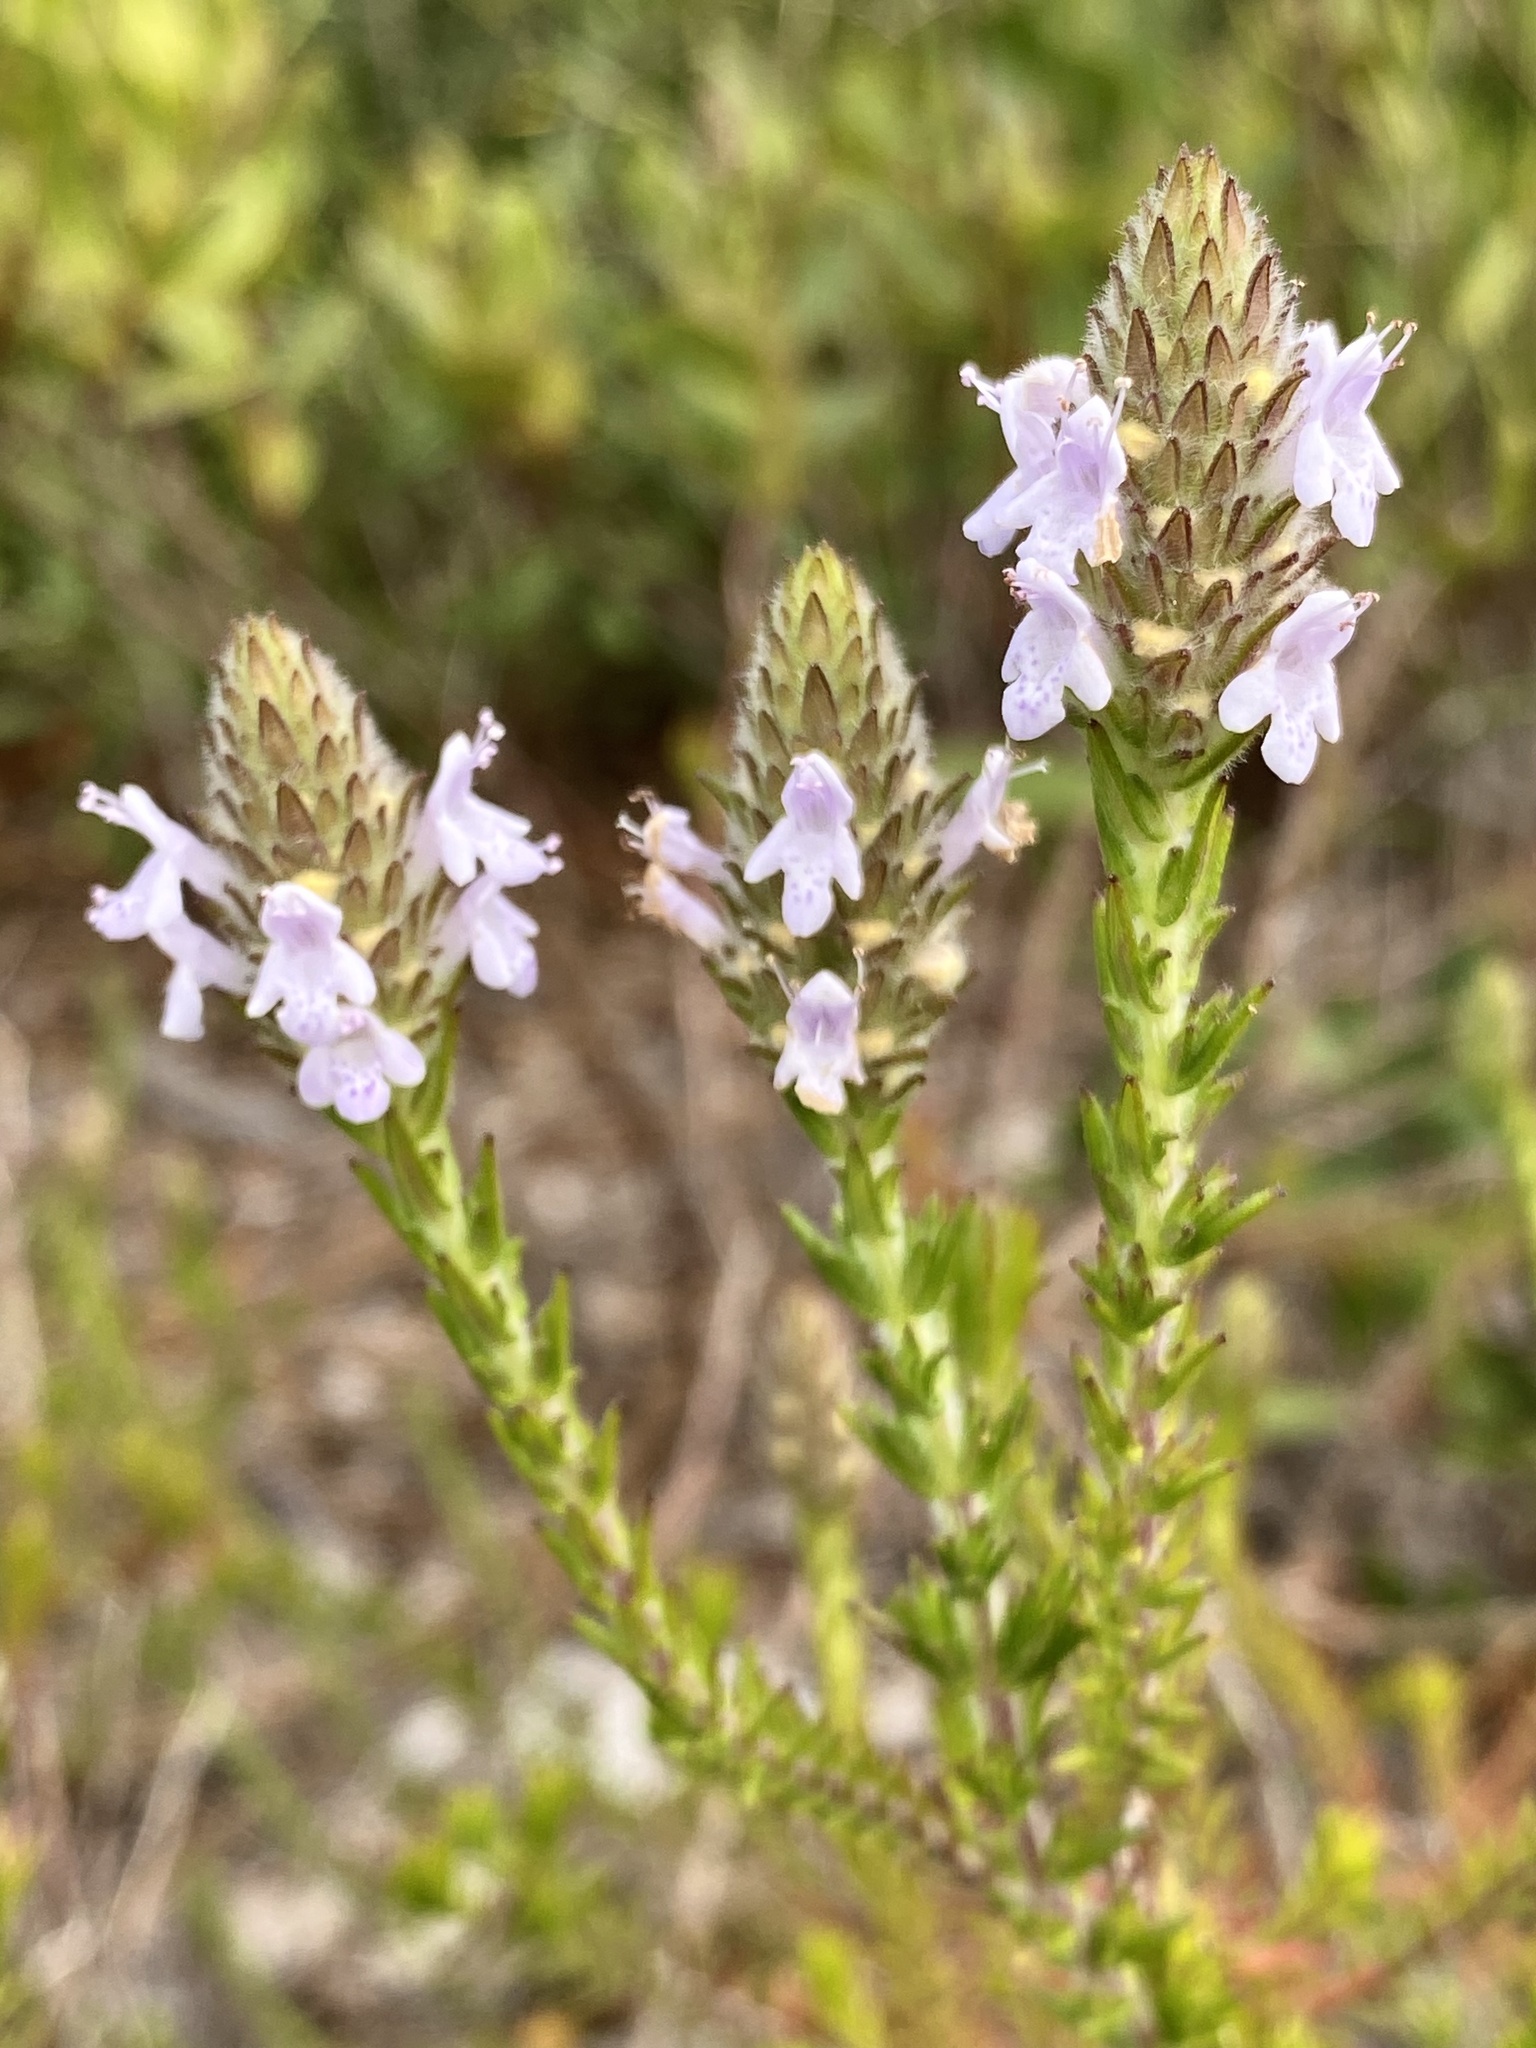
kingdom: Plantae
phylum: Tracheophyta
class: Magnoliopsida
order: Lamiales
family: Lamiaceae
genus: Piloblephis
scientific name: Piloblephis rigida
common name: Wild pennyroyal
